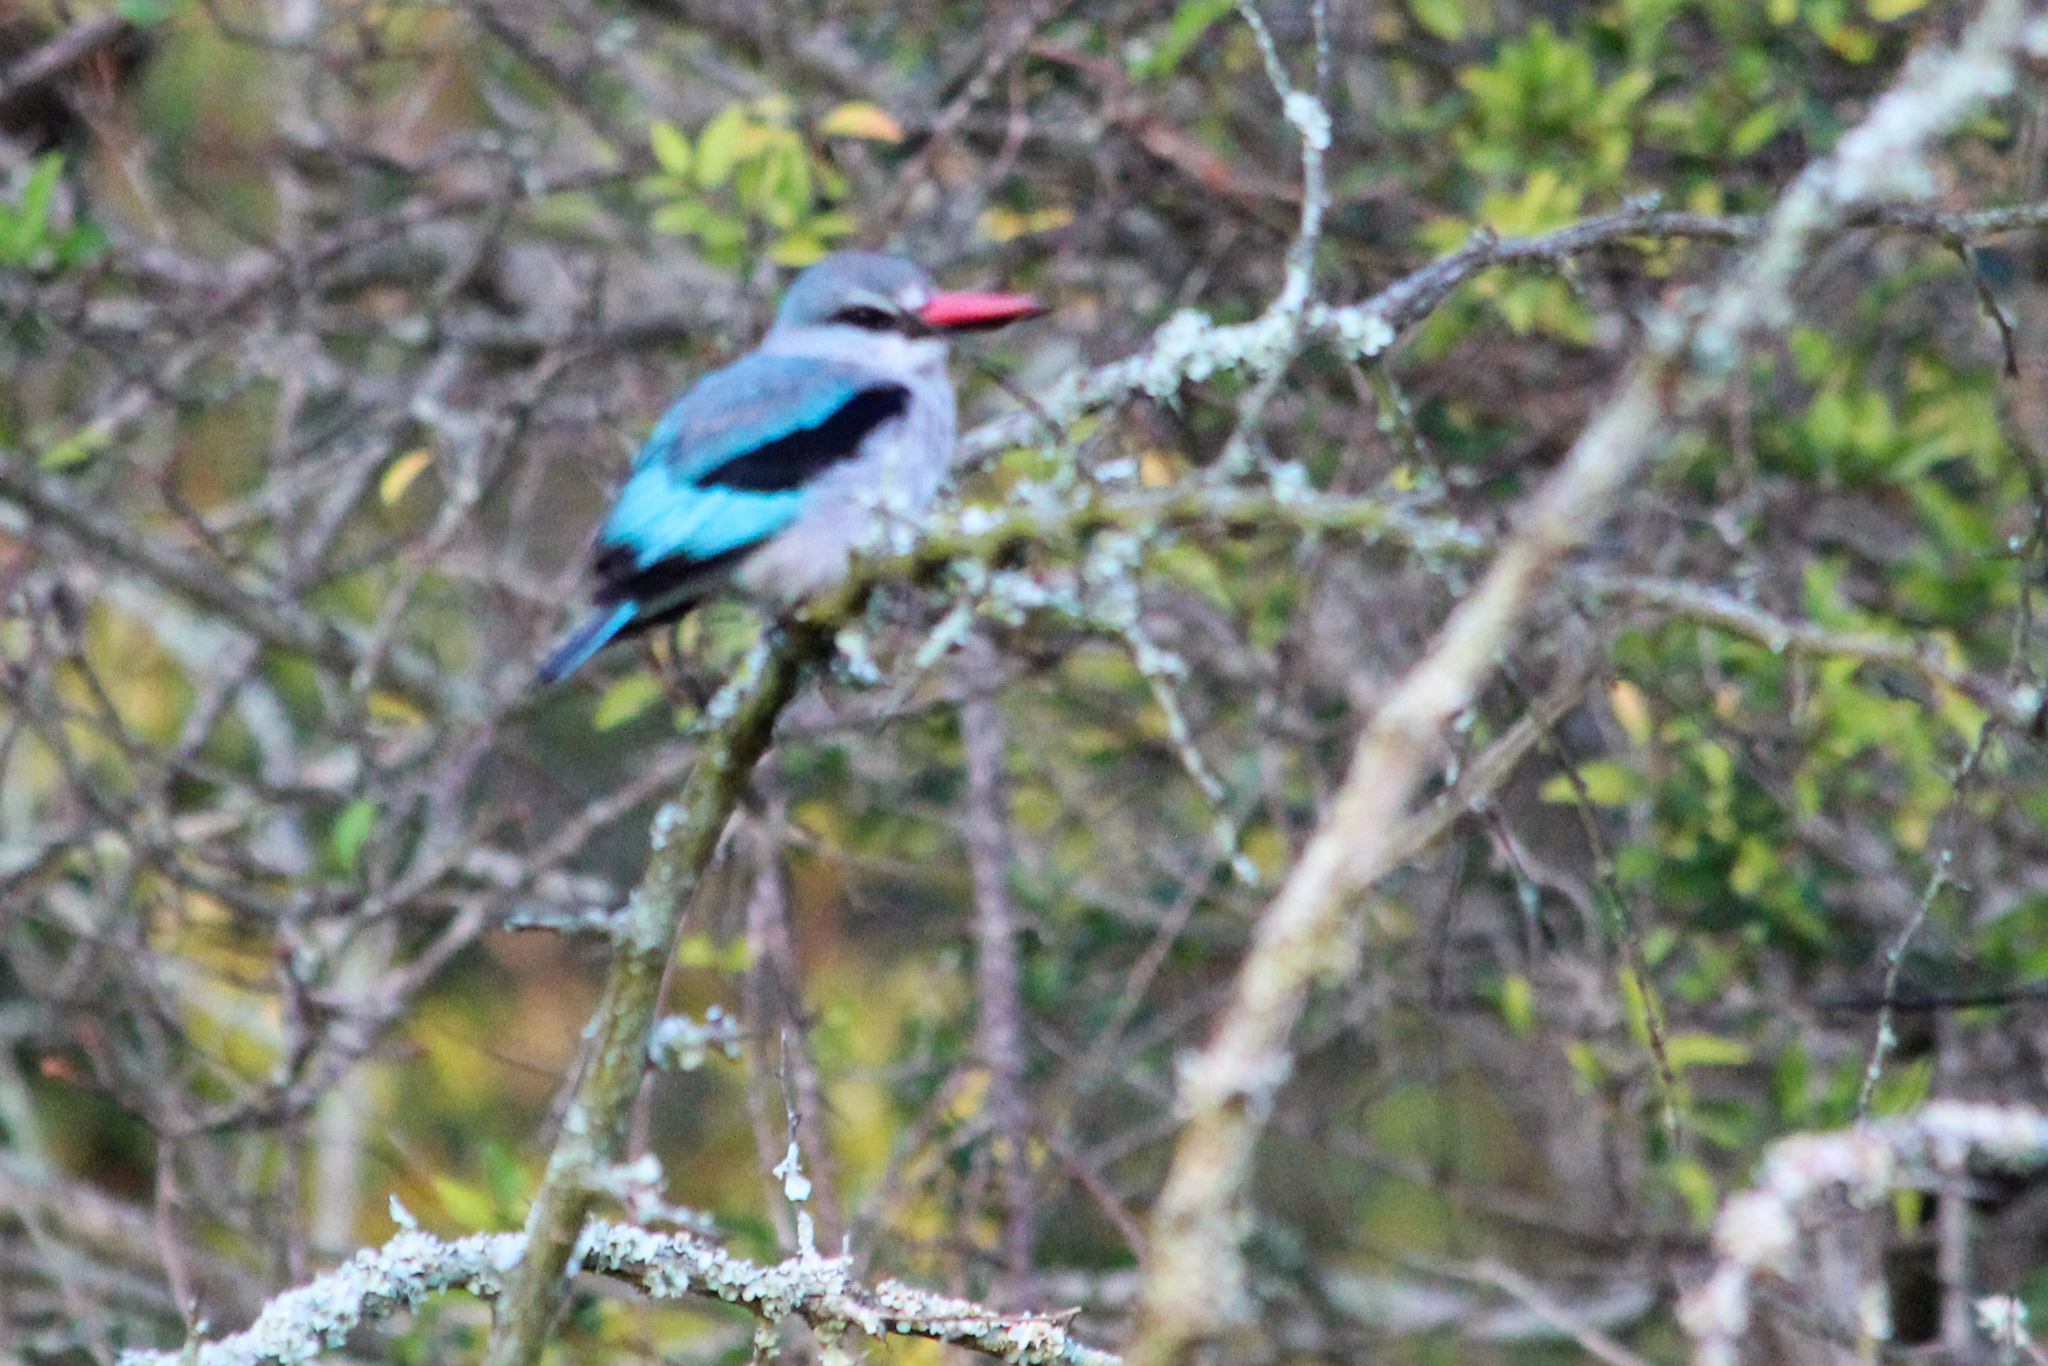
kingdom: Animalia
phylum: Chordata
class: Aves
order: Coraciiformes
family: Alcedinidae
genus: Halcyon
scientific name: Halcyon senegalensis
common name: Woodland kingfisher
